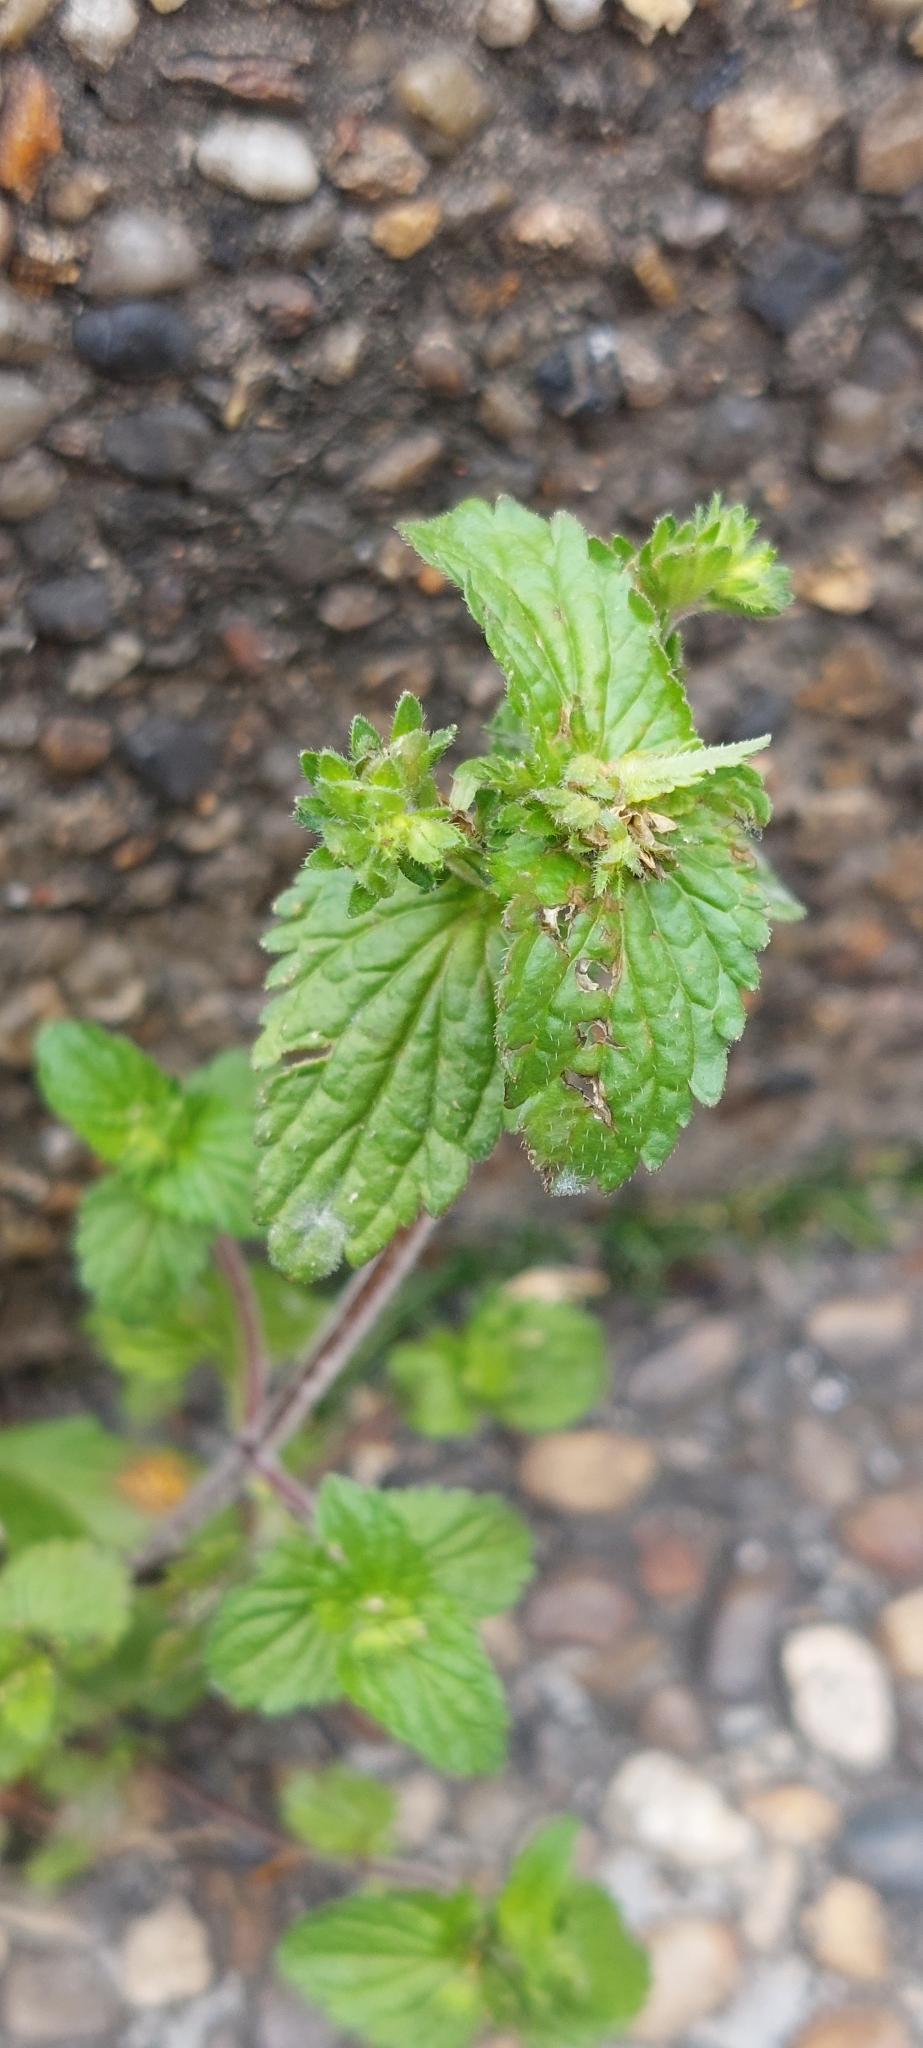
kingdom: Plantae
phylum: Tracheophyta
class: Magnoliopsida
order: Lamiales
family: Plantaginaceae
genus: Veronica
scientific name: Veronica javanica
